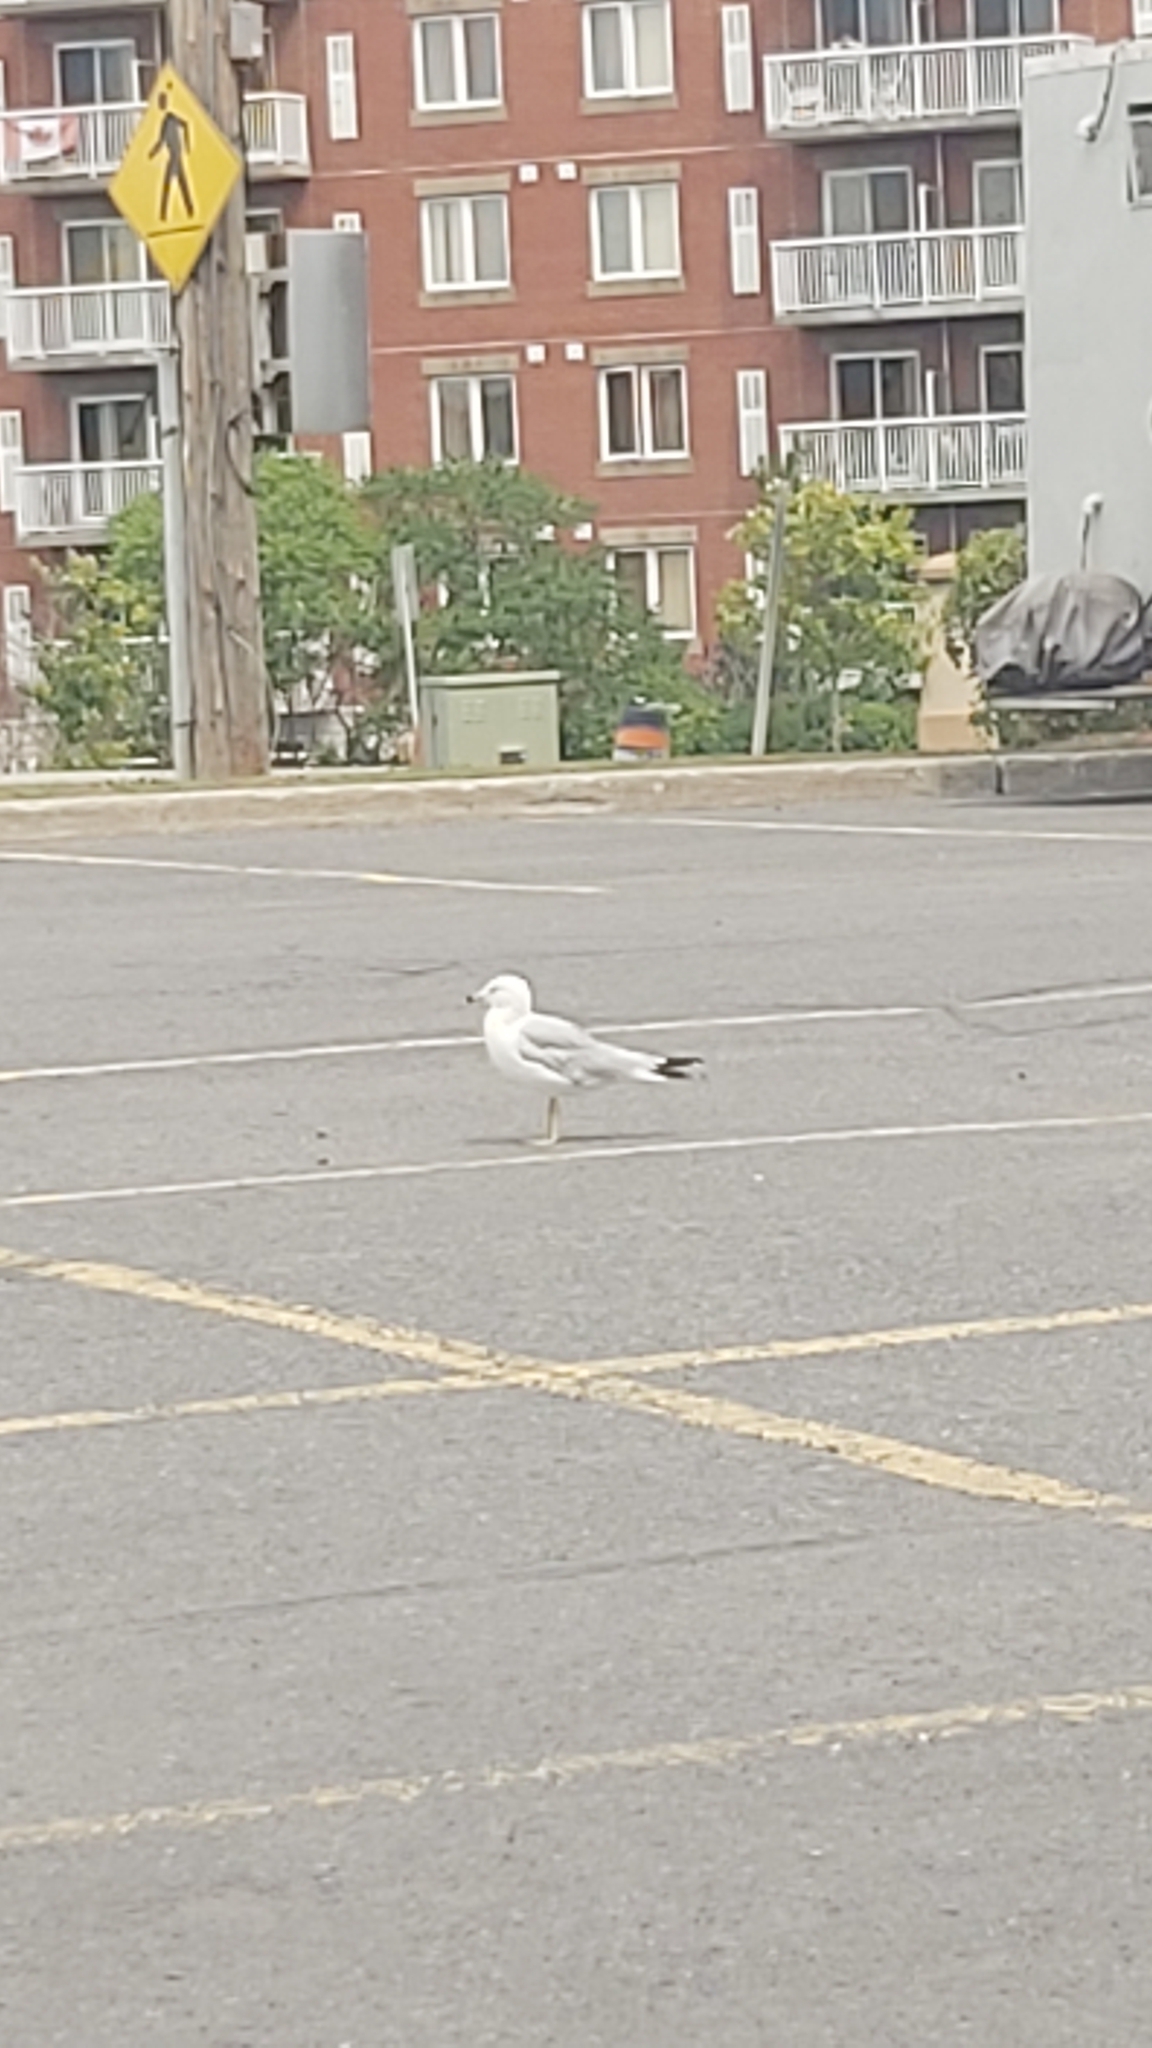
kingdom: Animalia
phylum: Chordata
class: Aves
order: Charadriiformes
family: Laridae
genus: Larus
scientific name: Larus delawarensis
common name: Ring-billed gull
